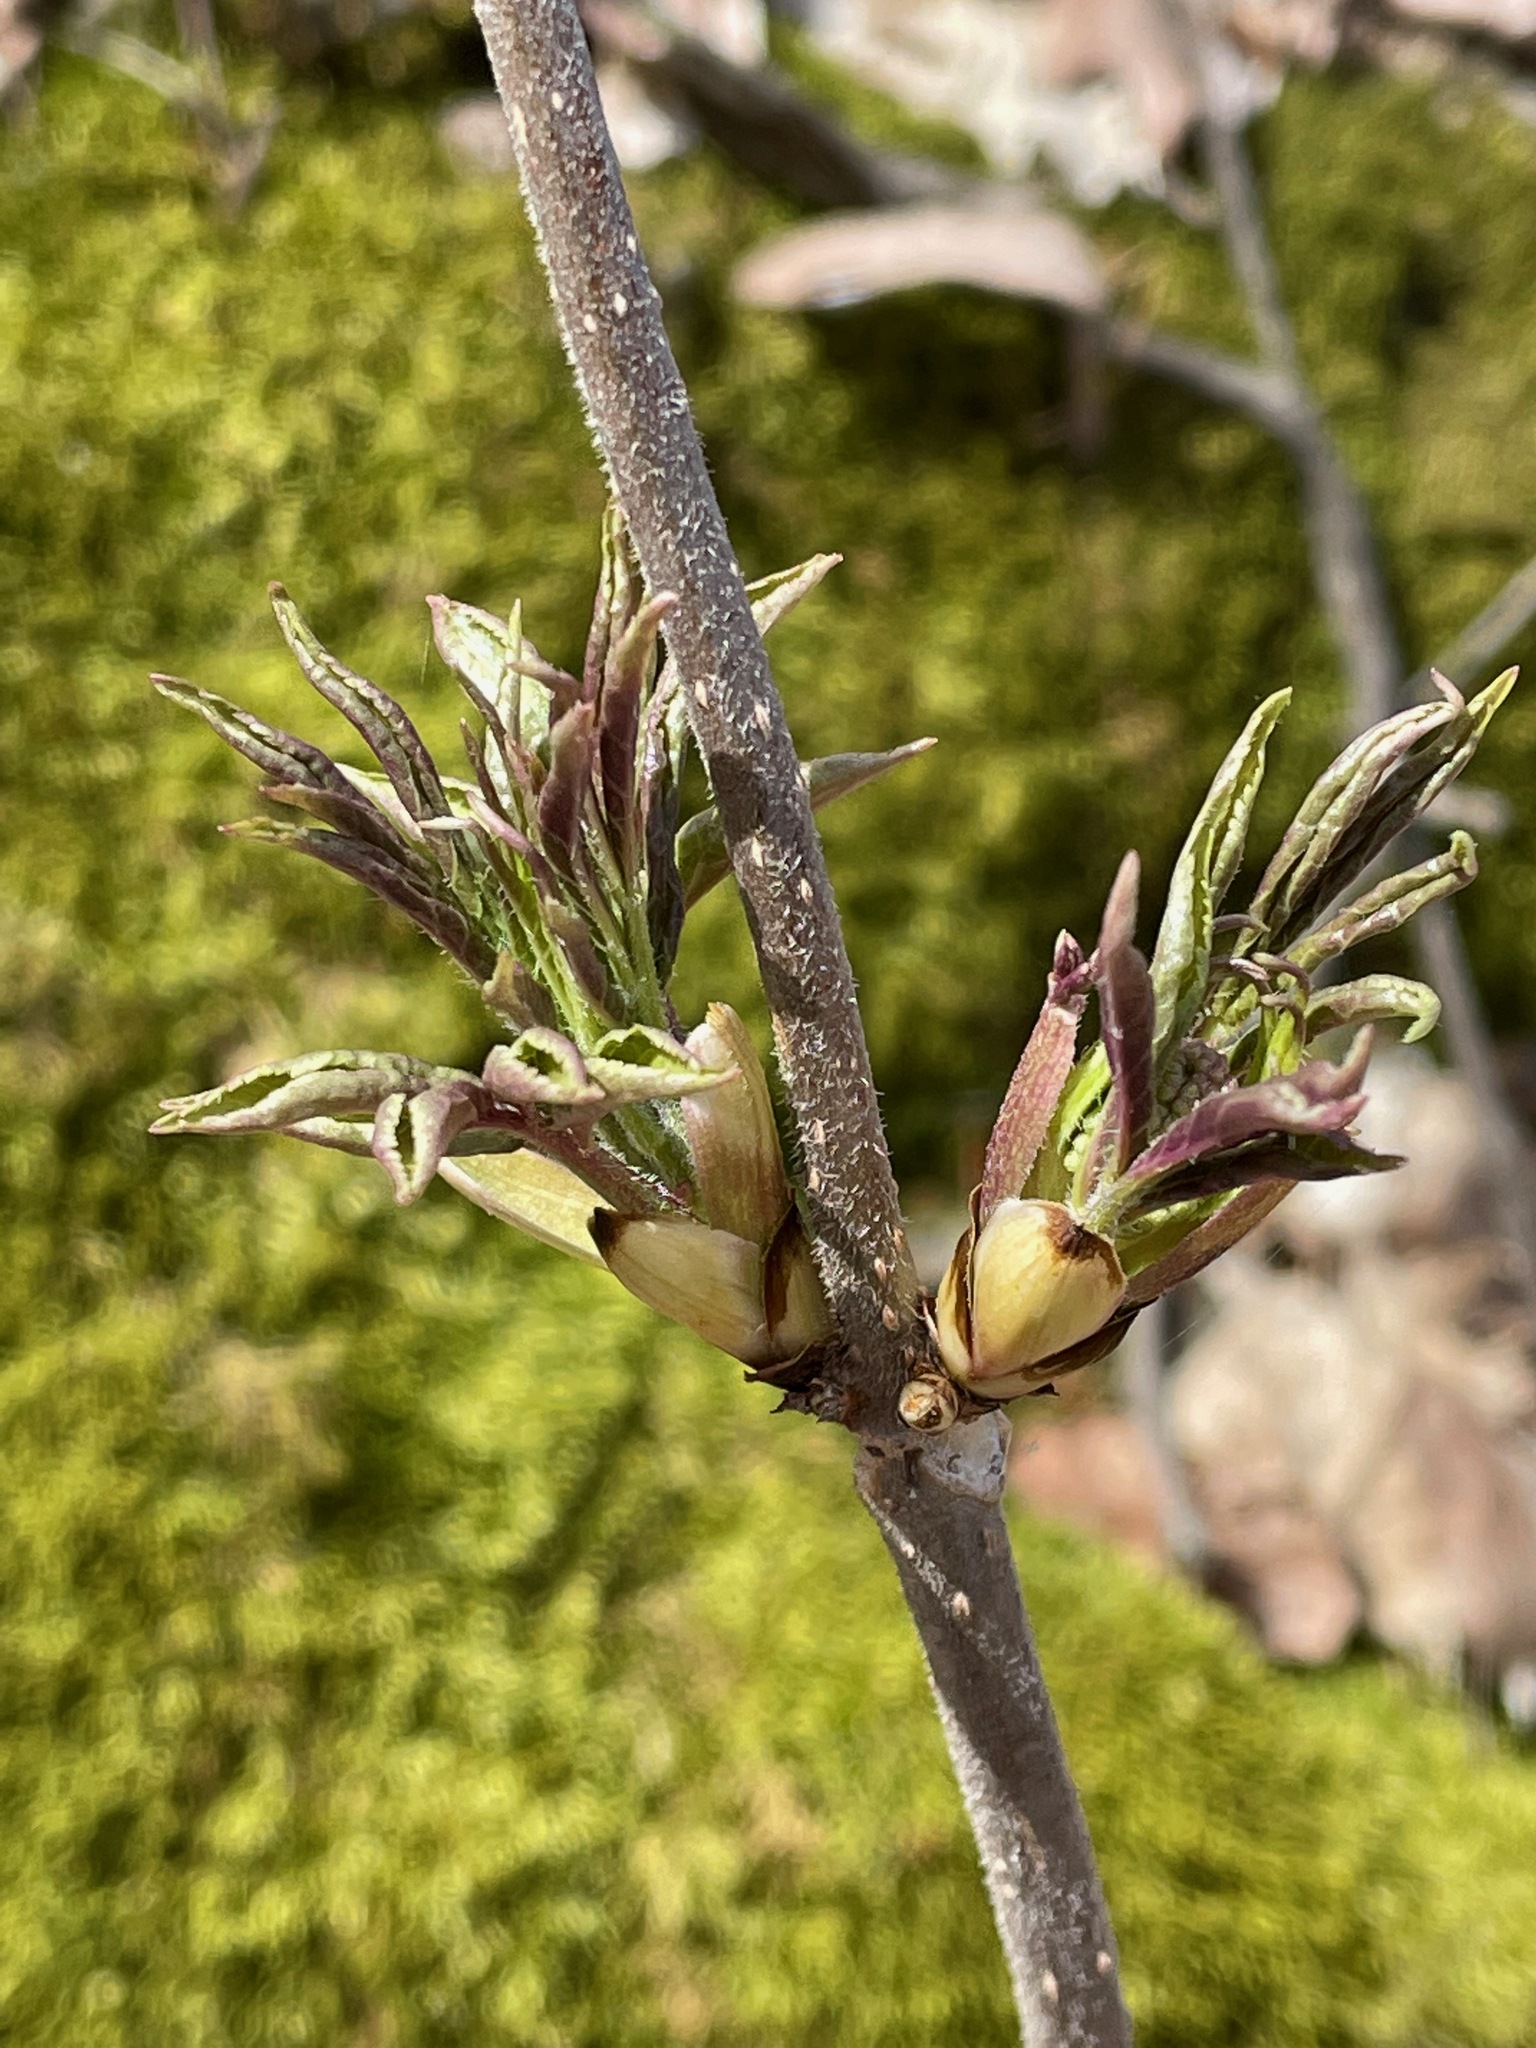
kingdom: Plantae
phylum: Tracheophyta
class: Magnoliopsida
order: Dipsacales
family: Viburnaceae
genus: Sambucus
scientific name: Sambucus racemosa
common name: Red-berried elder
